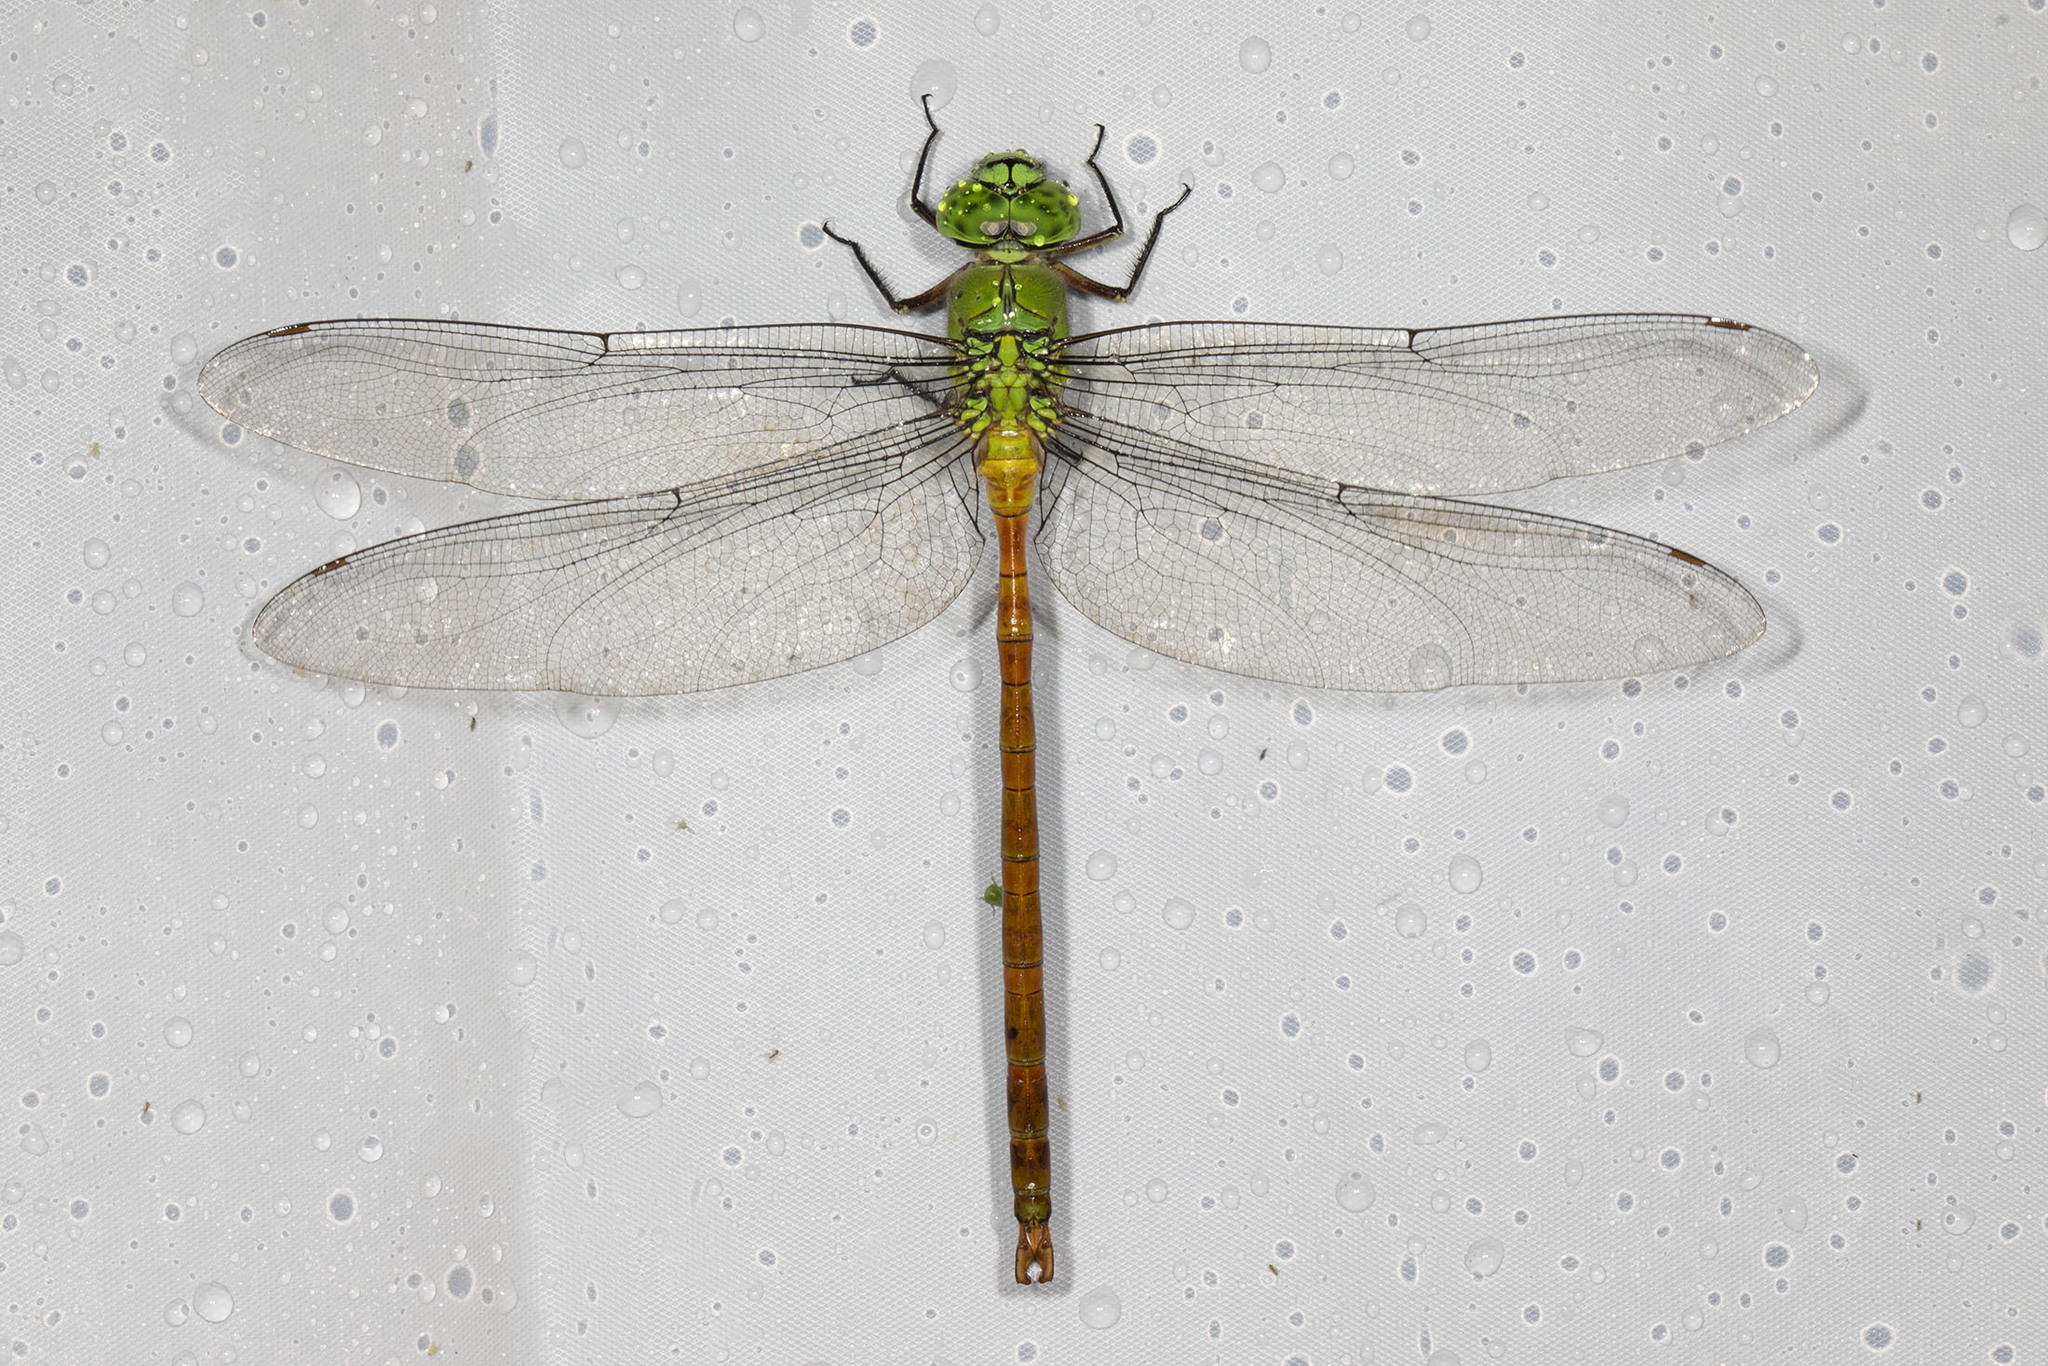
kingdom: Animalia
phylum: Arthropoda
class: Insecta
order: Odonata
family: Aeshnidae
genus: Staurophlebia
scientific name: Staurophlebia reticulata
